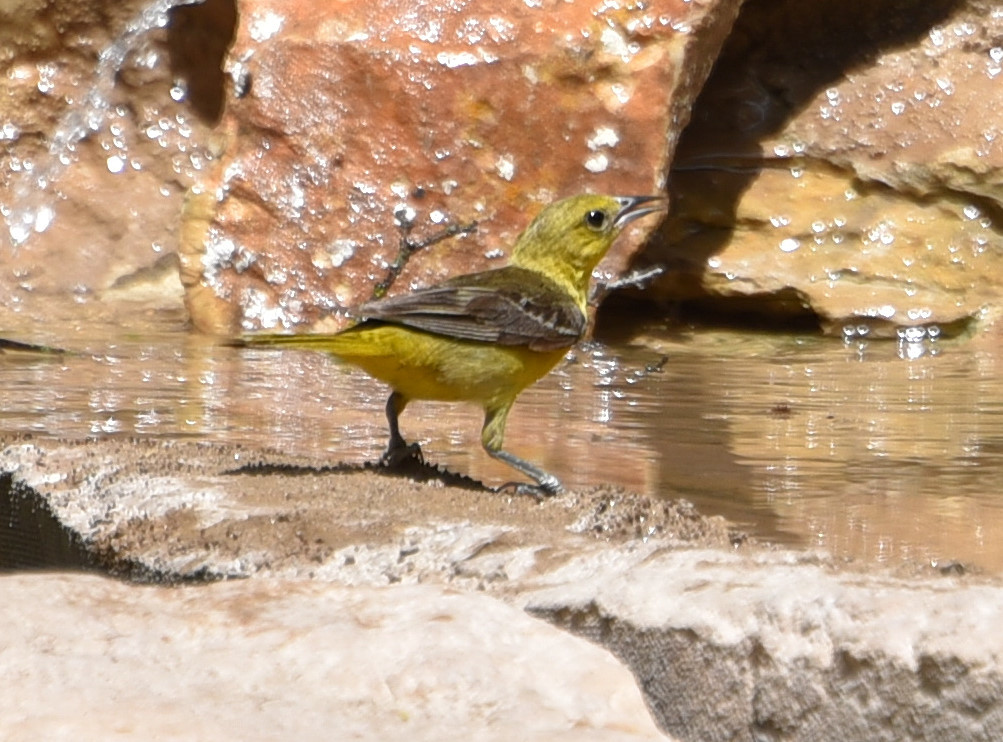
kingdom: Animalia
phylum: Chordata
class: Aves
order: Passeriformes
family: Icteridae
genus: Icterus
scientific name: Icterus spurius
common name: Orchard oriole
